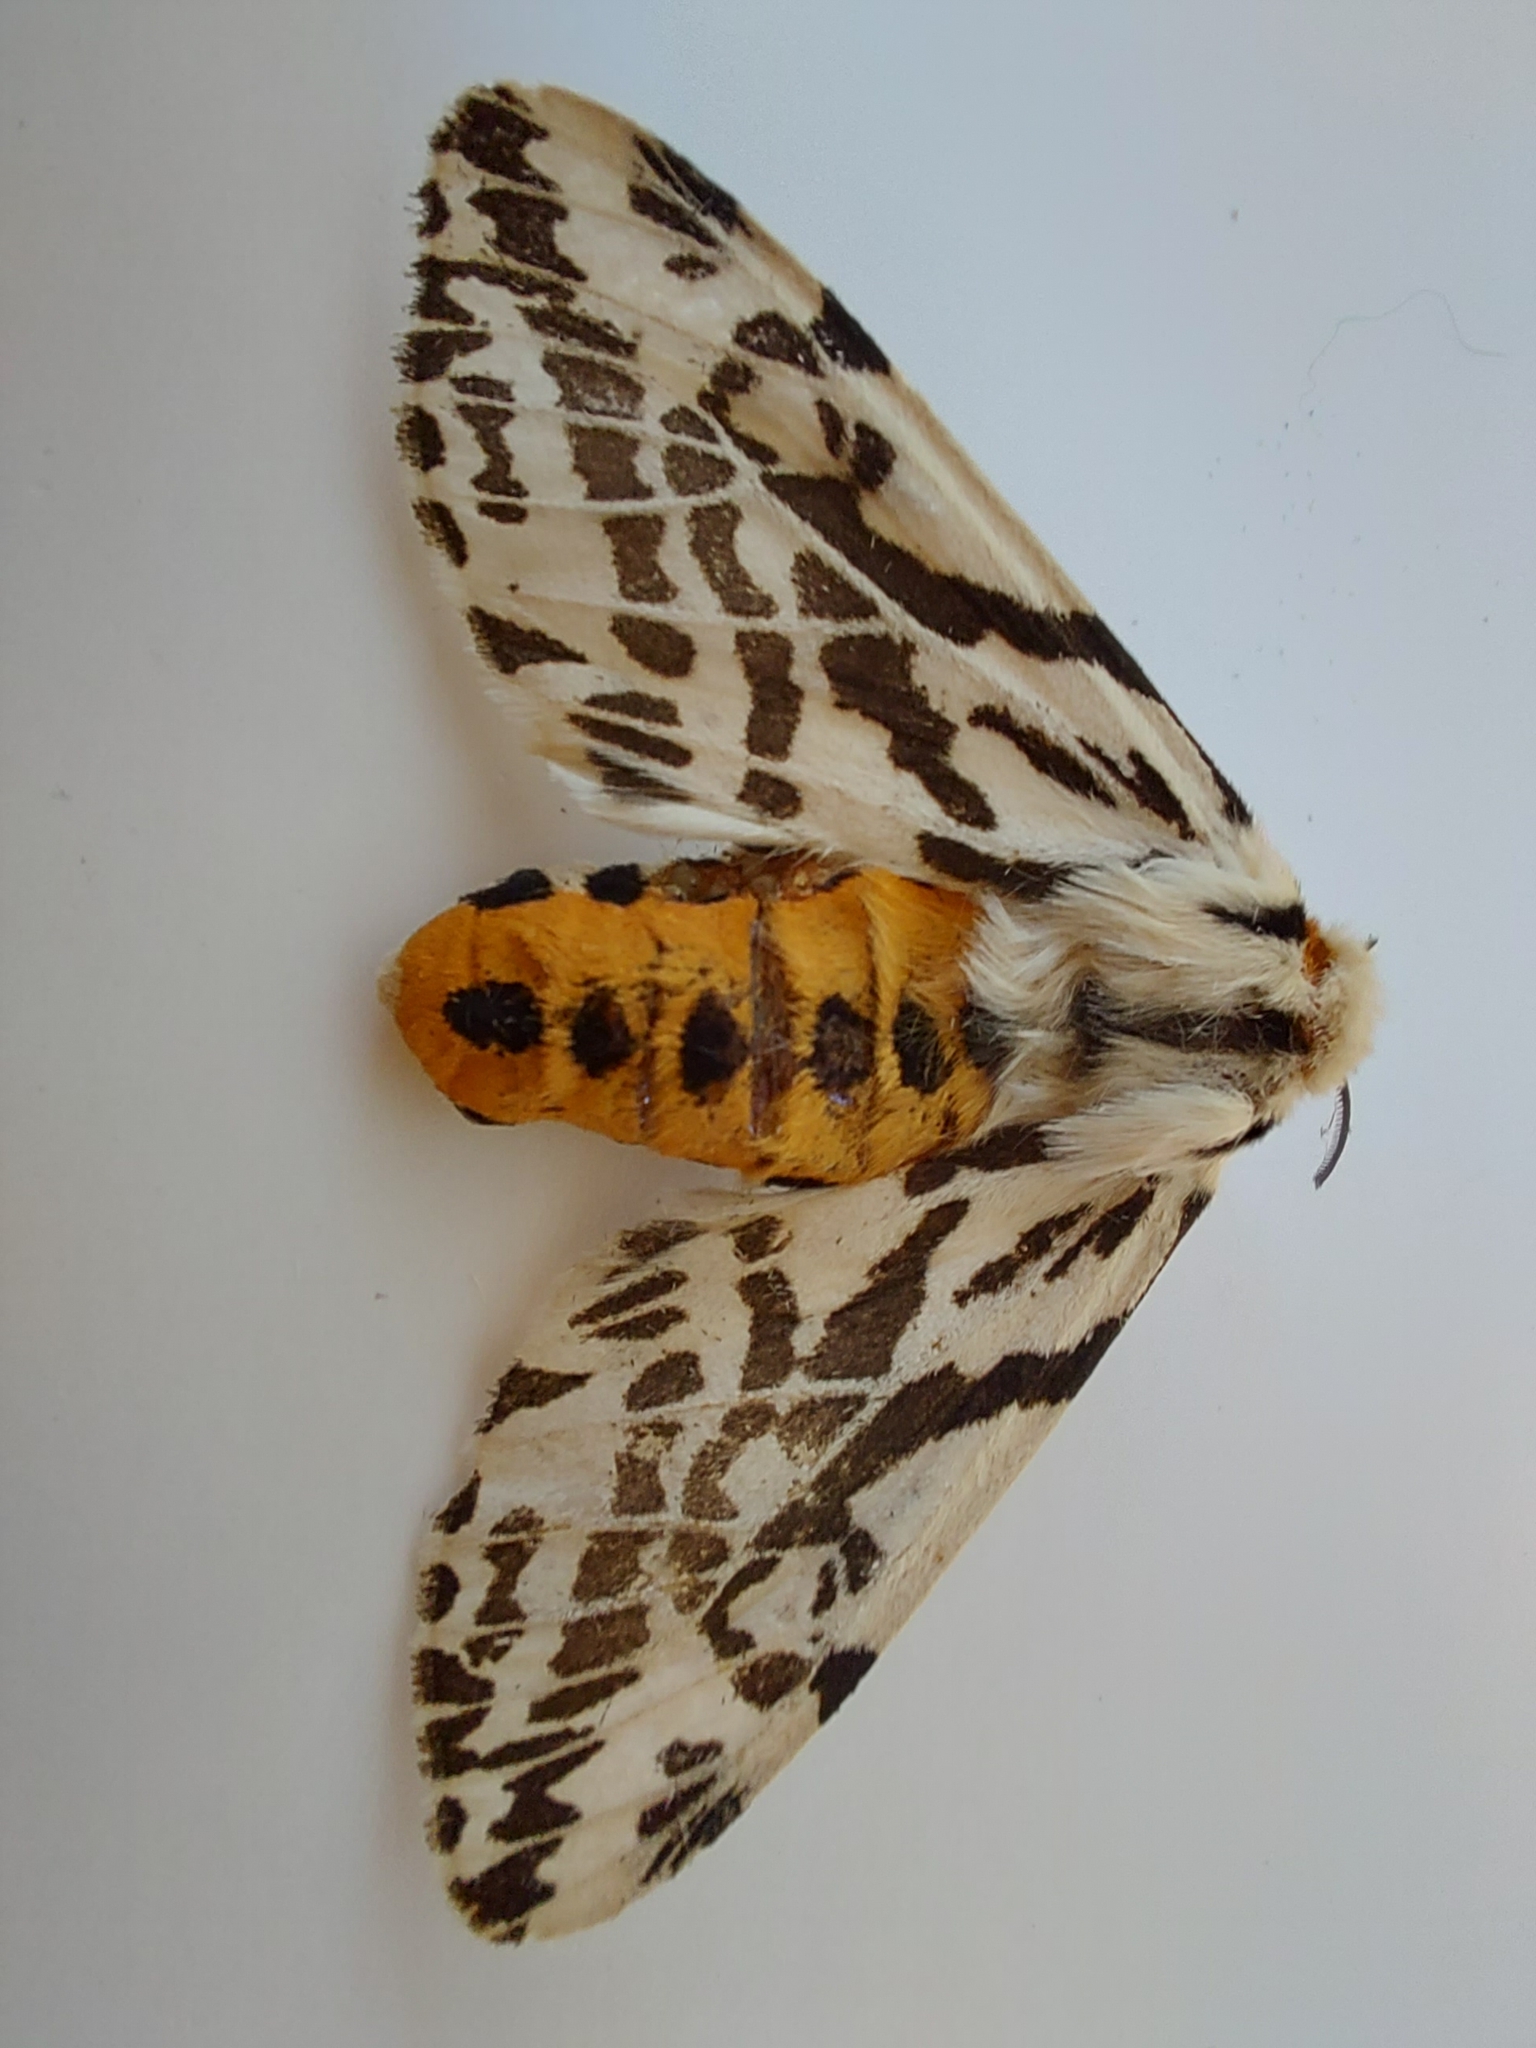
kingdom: Animalia
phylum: Arthropoda
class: Insecta
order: Lepidoptera
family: Erebidae
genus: Ardices
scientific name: Ardices glatignyi
